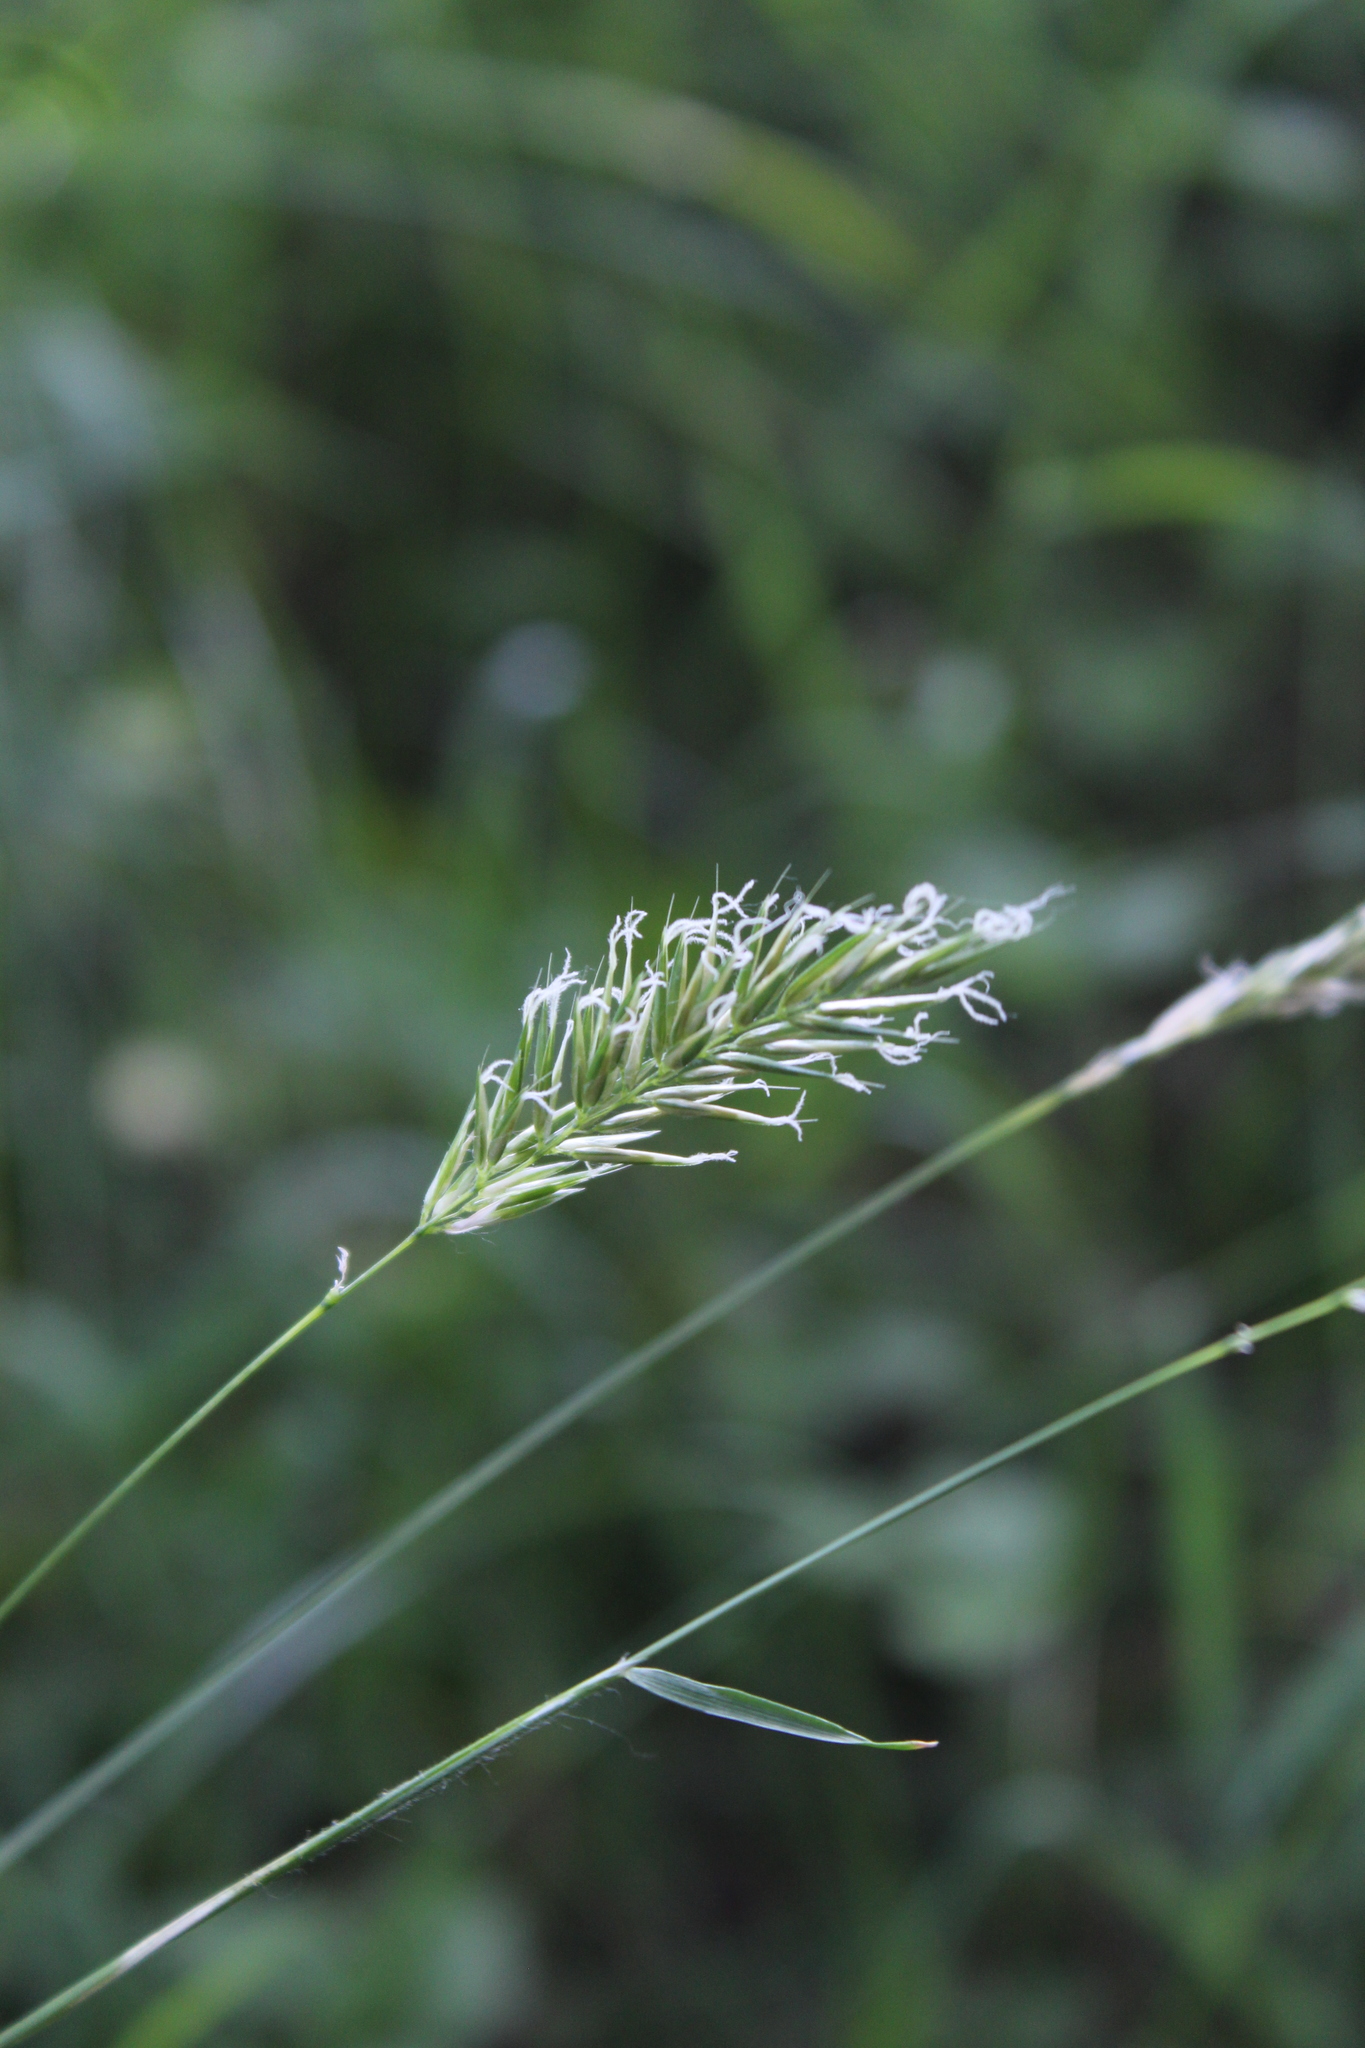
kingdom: Plantae
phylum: Tracheophyta
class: Liliopsida
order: Poales
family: Poaceae
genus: Anthoxanthum
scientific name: Anthoxanthum odoratum
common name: Sweet vernalgrass
